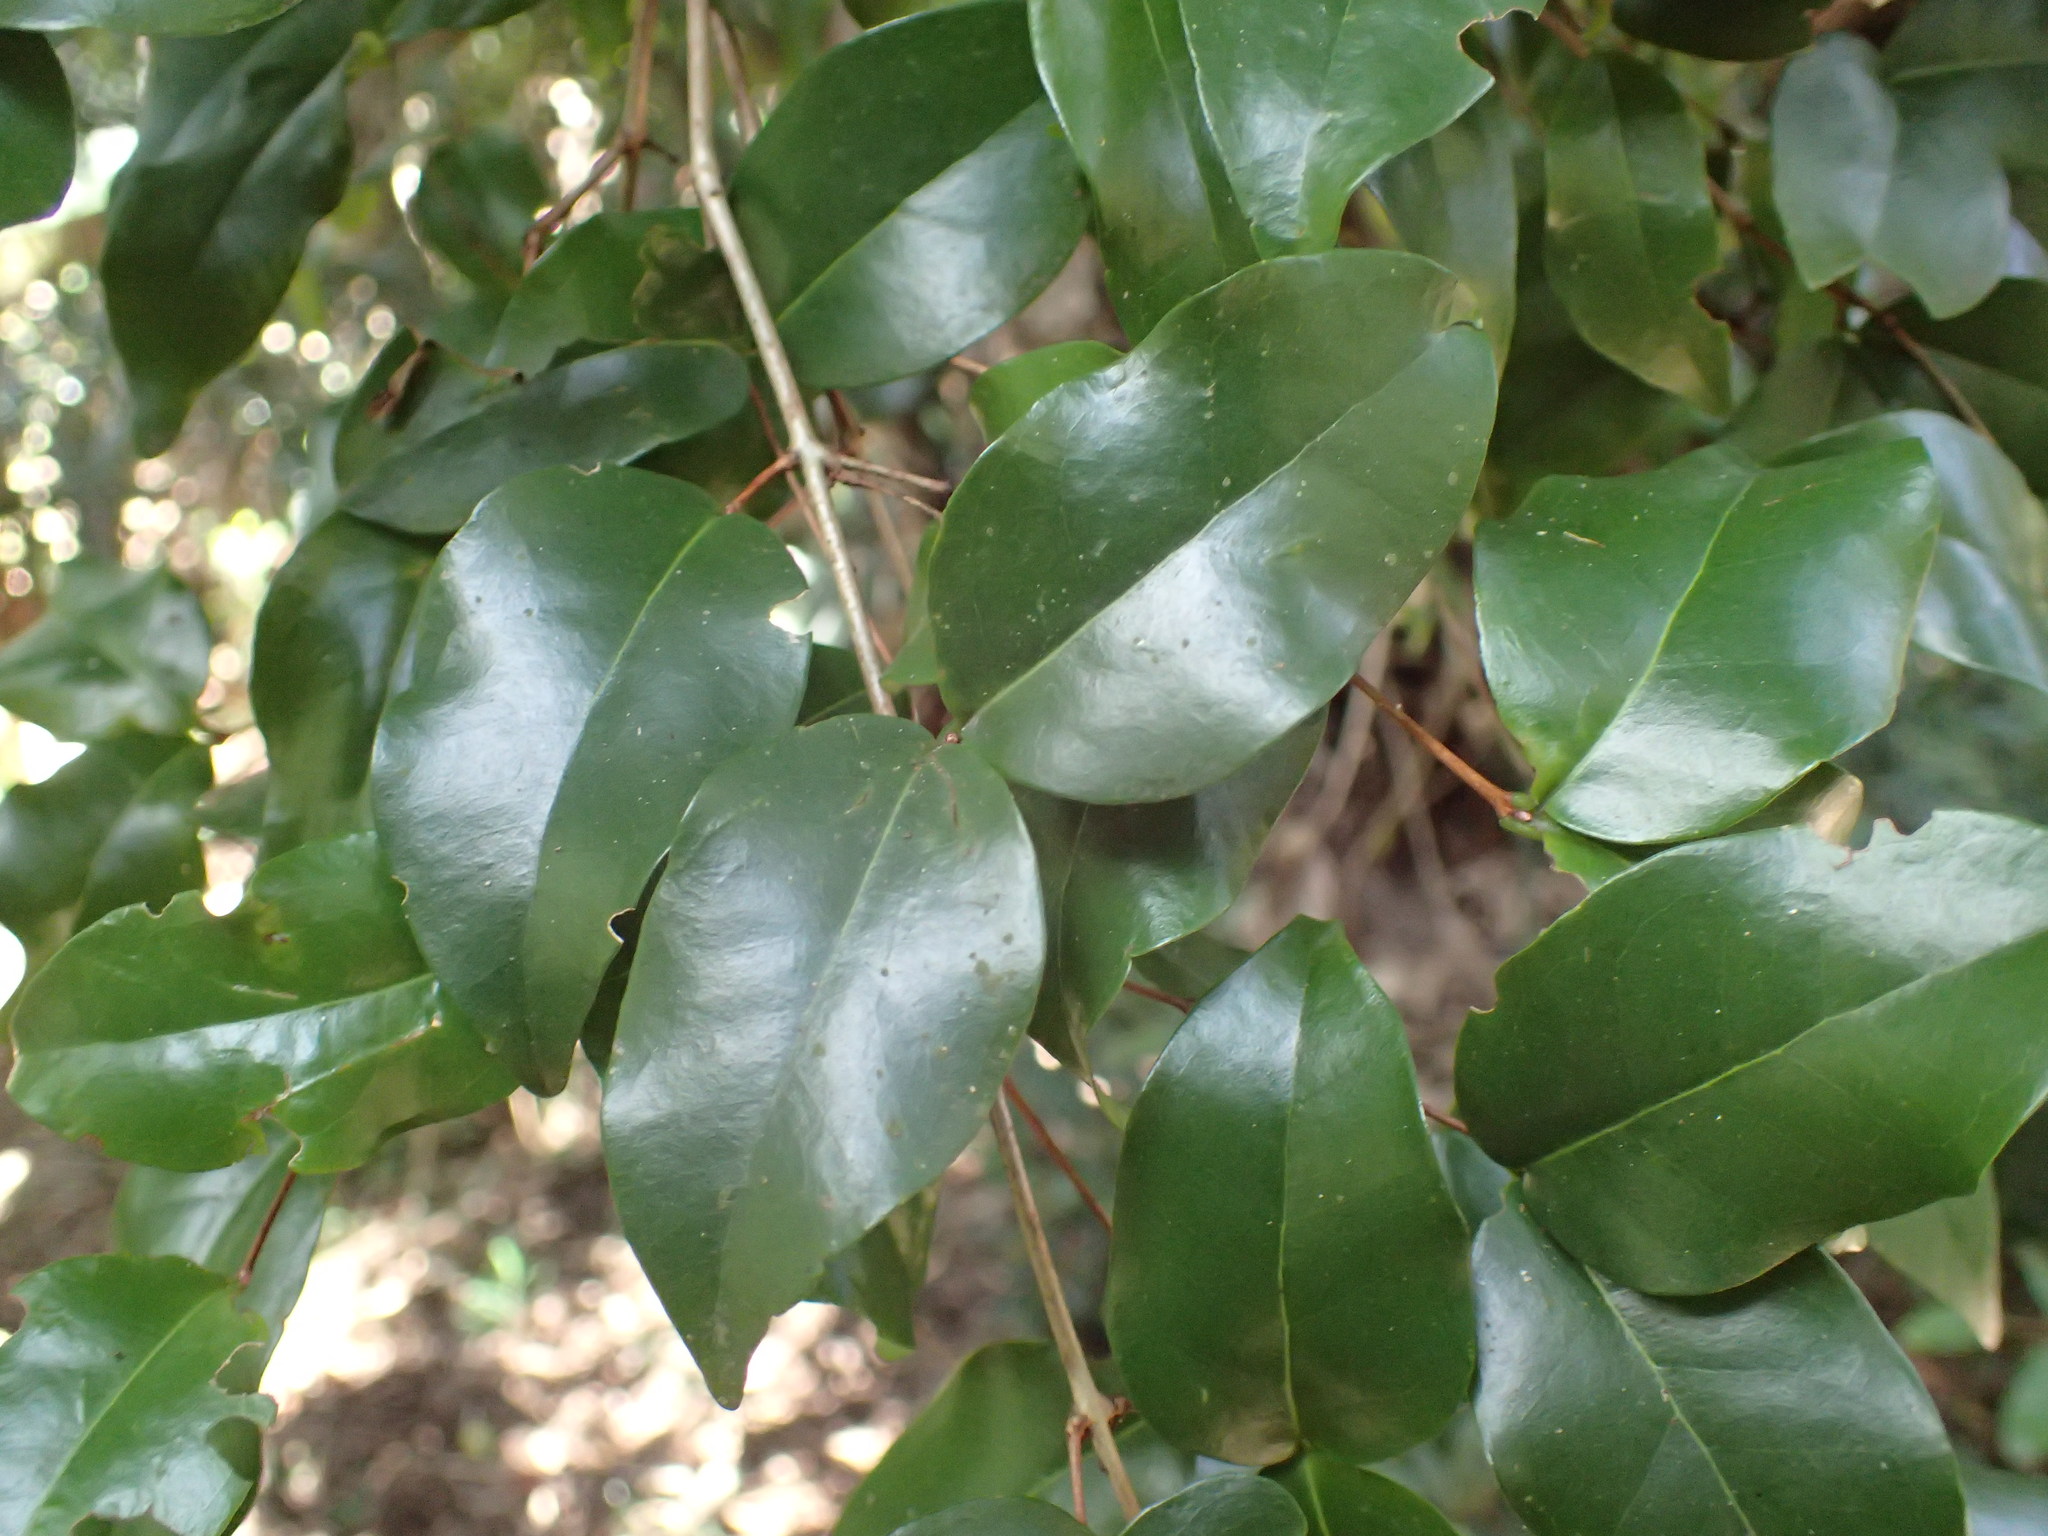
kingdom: Plantae
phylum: Tracheophyta
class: Magnoliopsida
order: Myrtales
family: Myrtaceae
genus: Eugenia
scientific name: Eugenia natalitia
